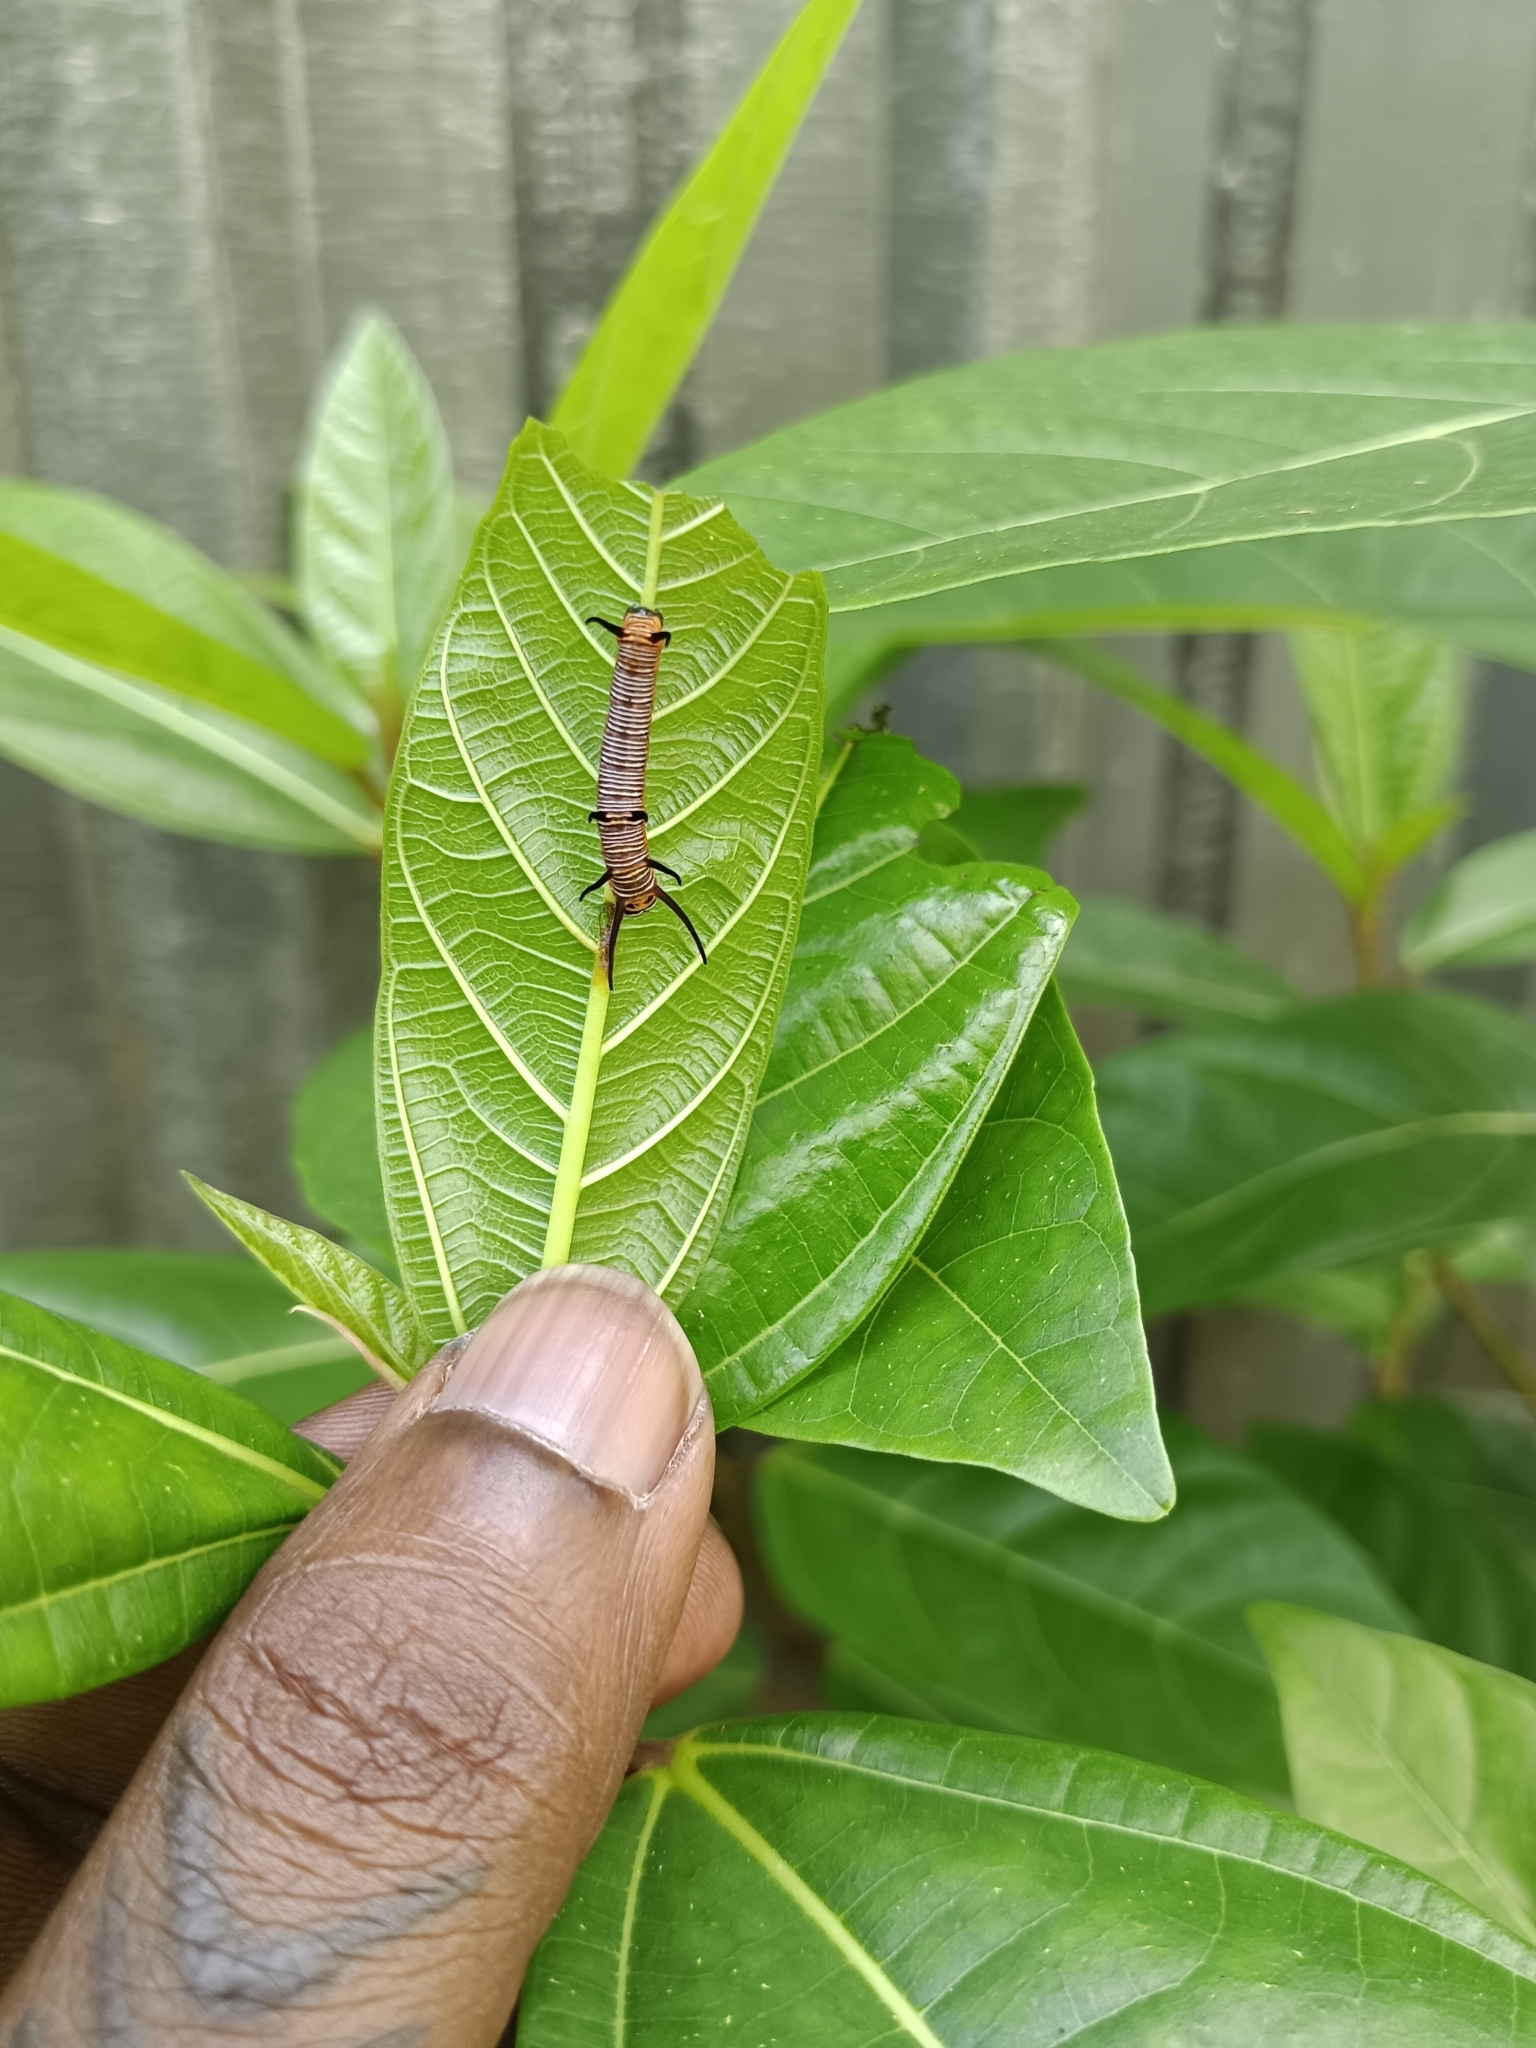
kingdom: Animalia
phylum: Arthropoda
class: Insecta
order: Lepidoptera
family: Nymphalidae
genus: Euploea
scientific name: Euploea core
